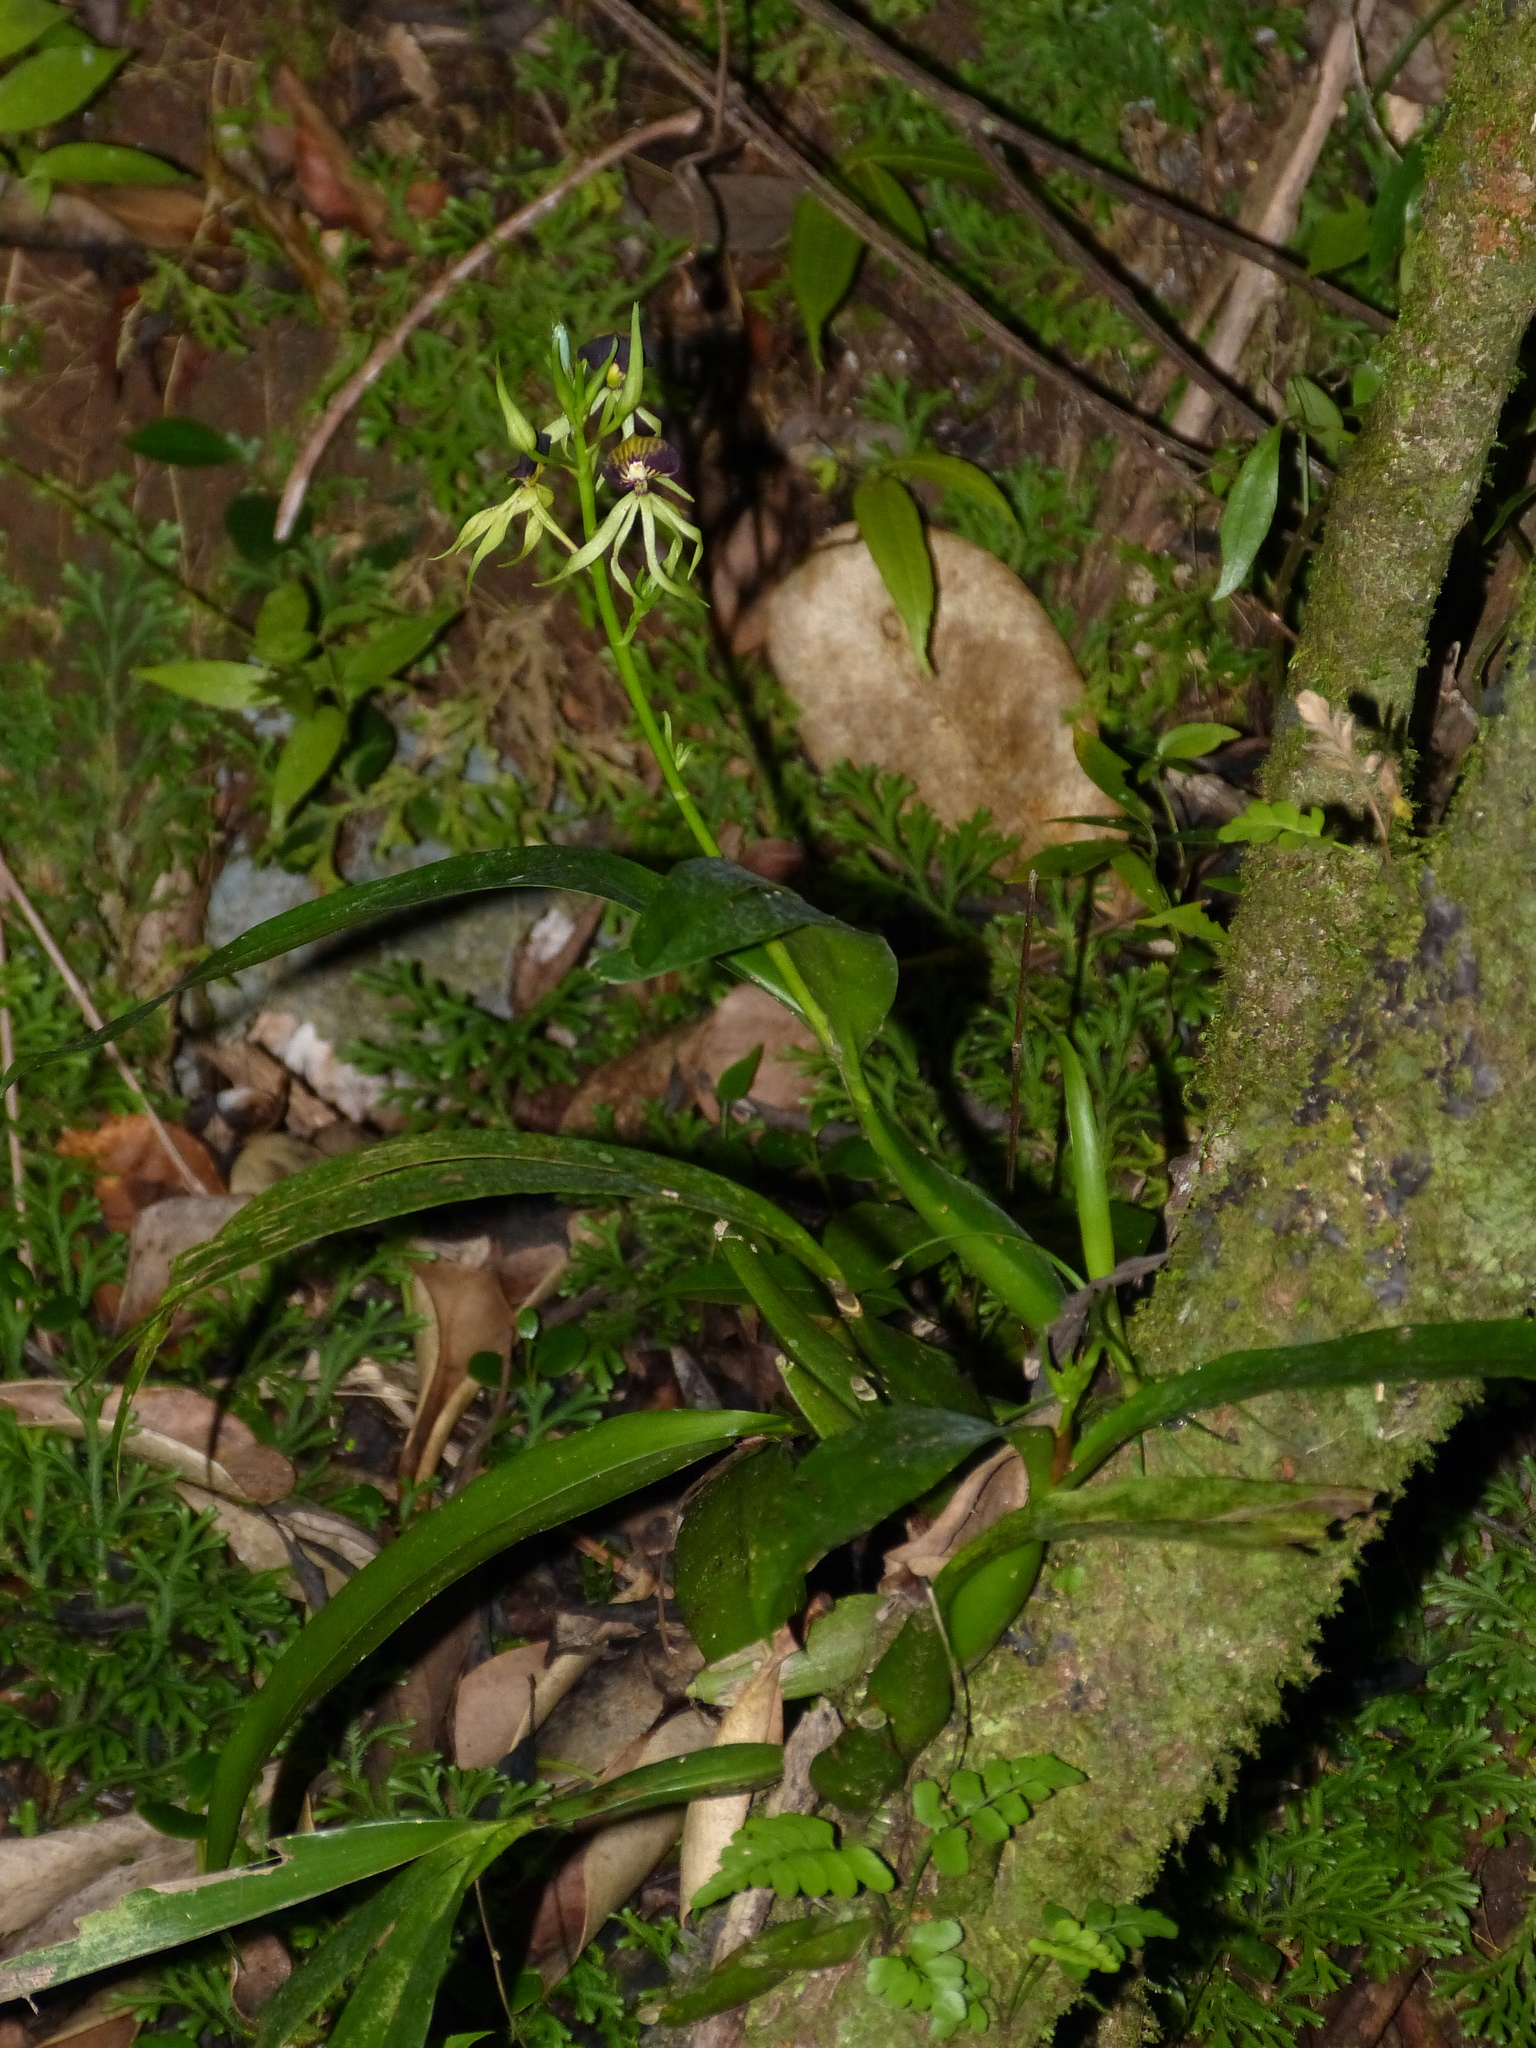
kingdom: Plantae
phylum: Tracheophyta
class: Liliopsida
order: Asparagales
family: Orchidaceae
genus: Prosthechea
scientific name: Prosthechea cochleata
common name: Clamshell orchid
